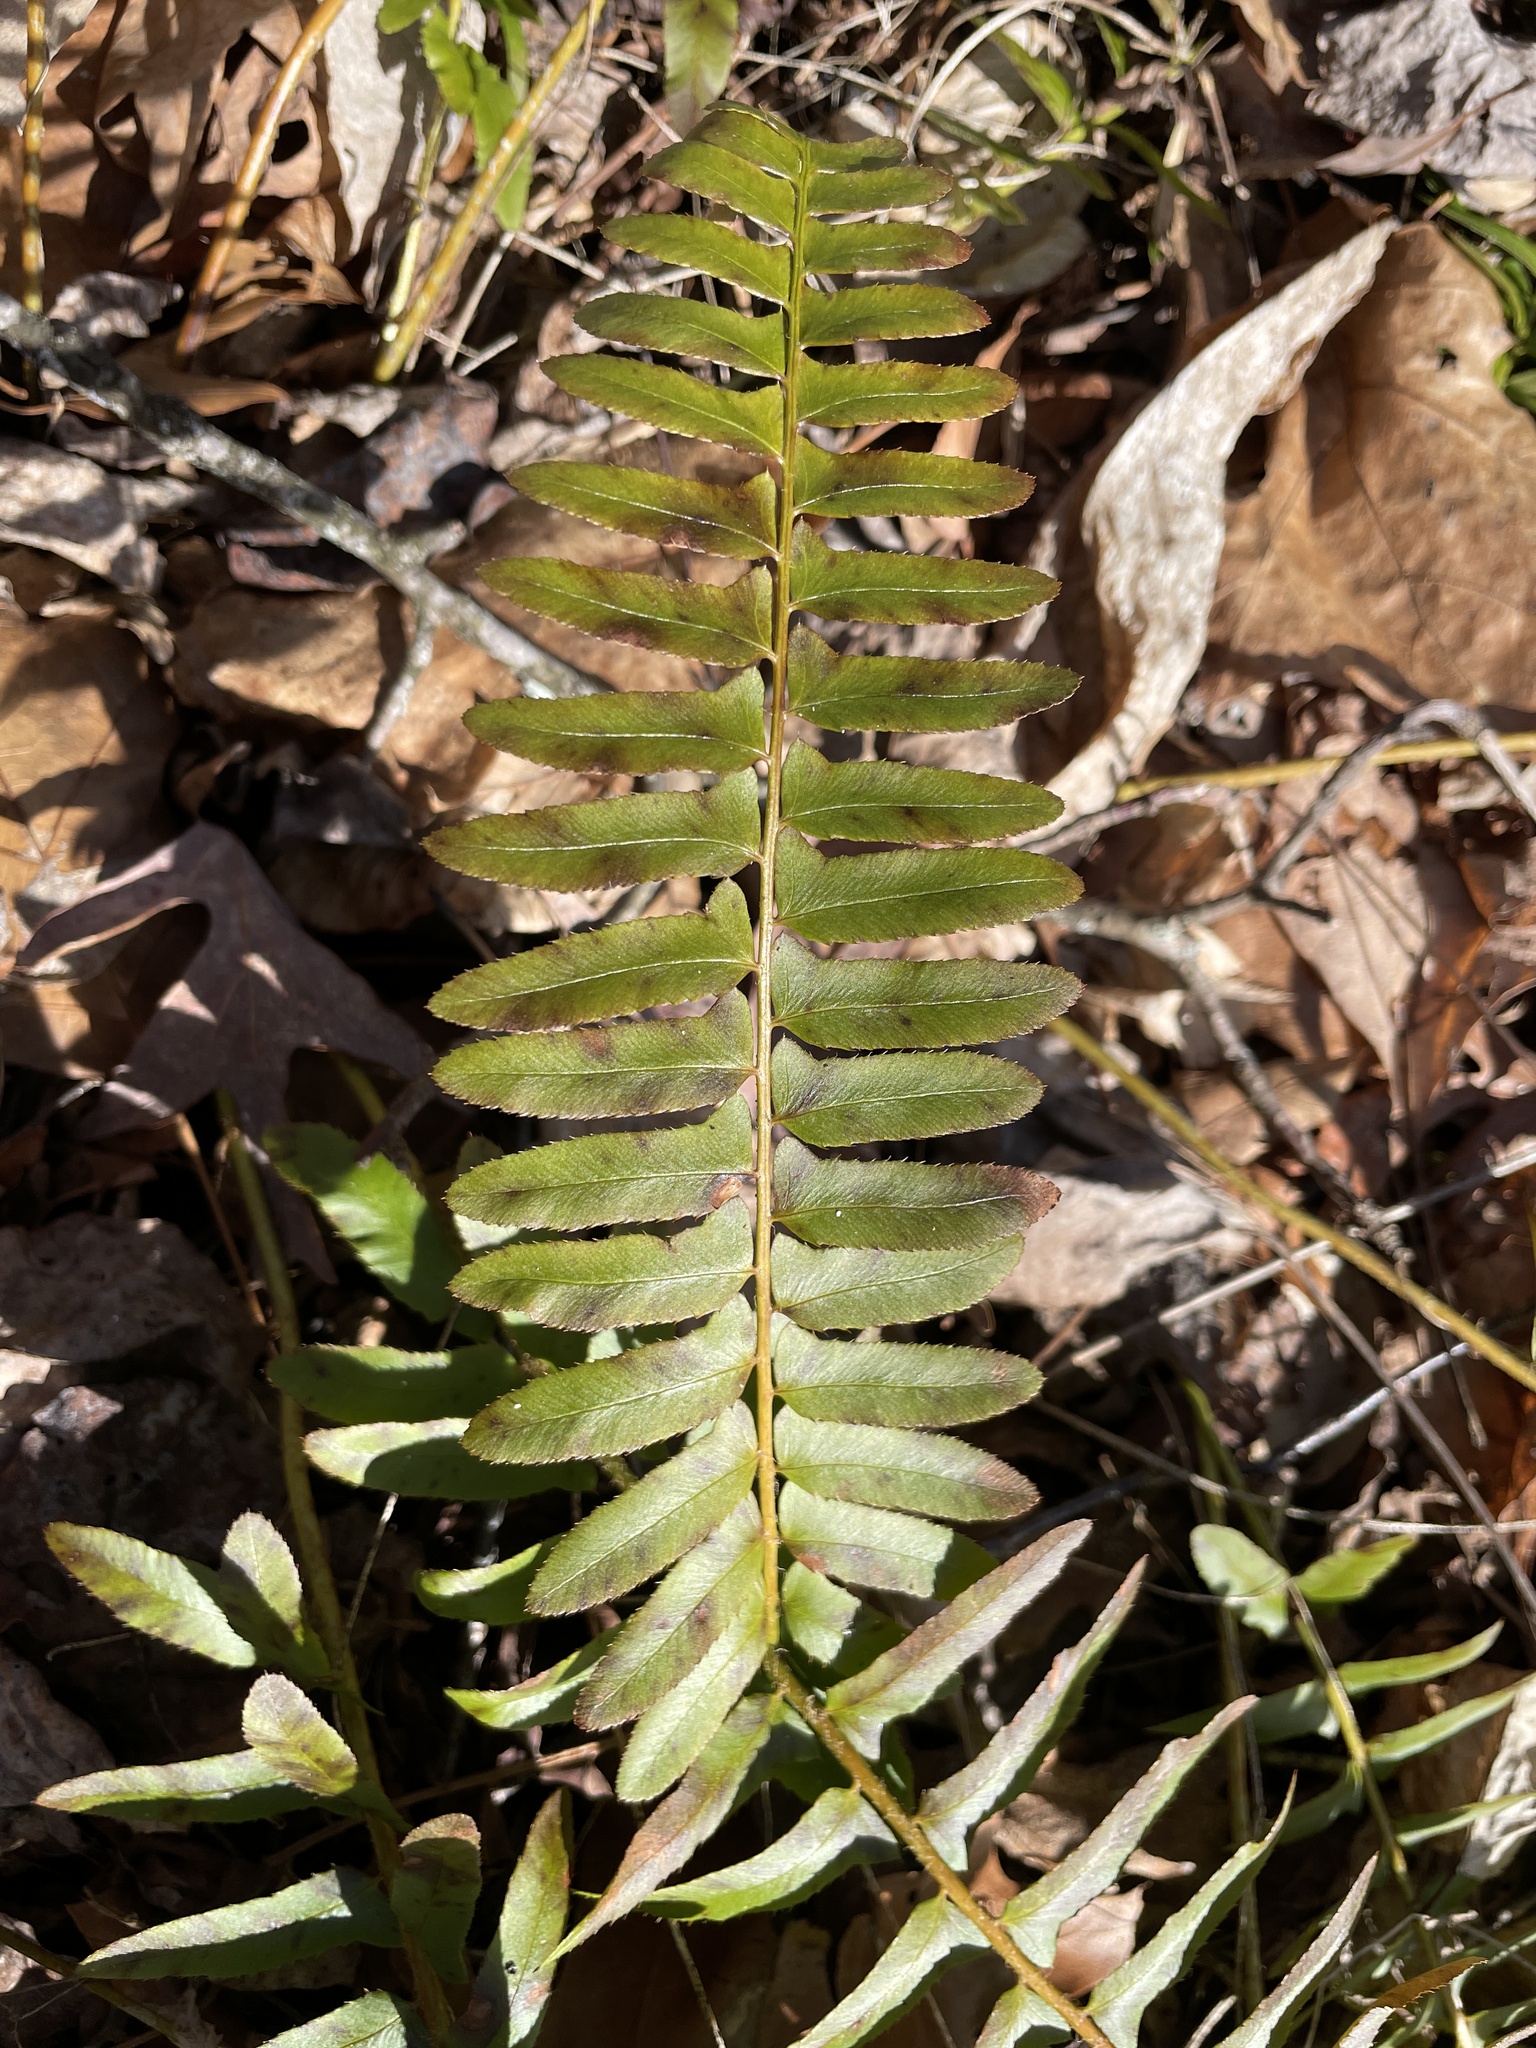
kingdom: Plantae
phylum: Tracheophyta
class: Polypodiopsida
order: Polypodiales
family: Dryopteridaceae
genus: Polystichum
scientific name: Polystichum acrostichoides
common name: Christmas fern
